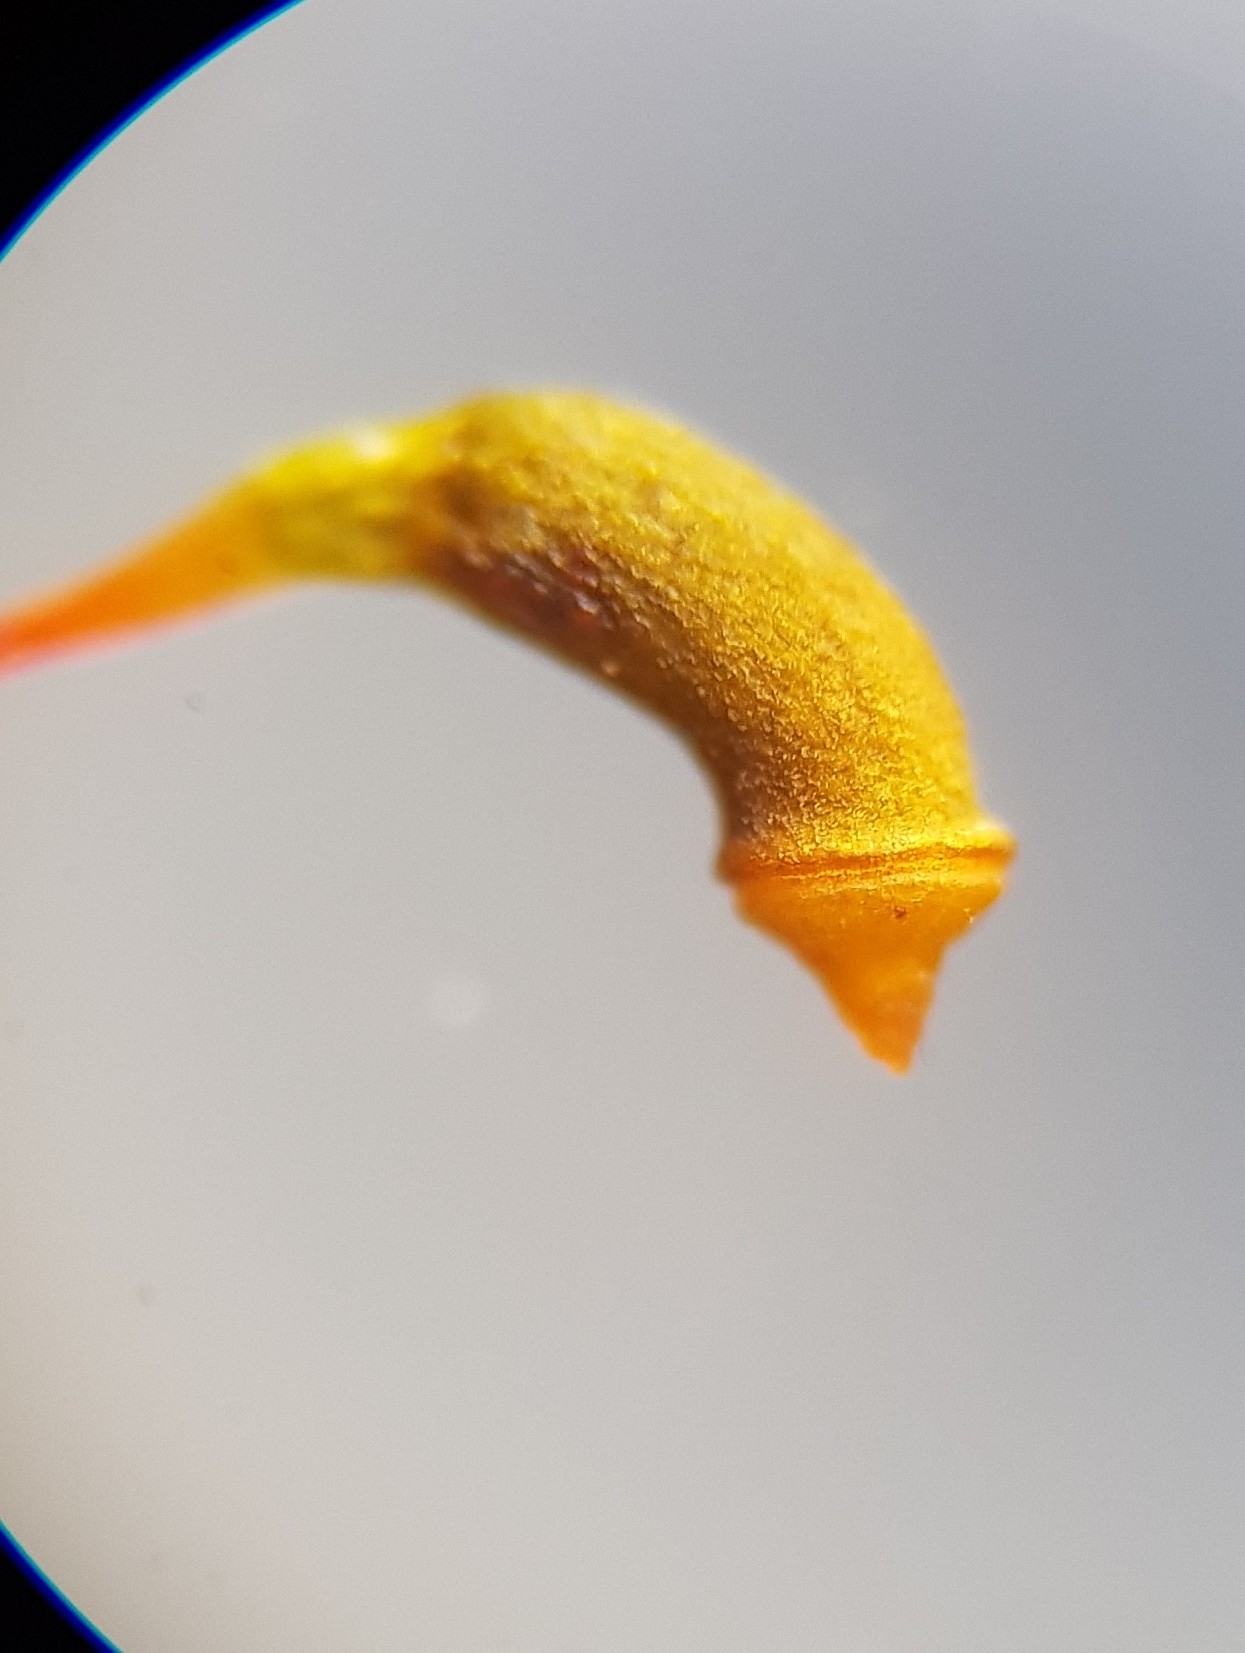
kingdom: Plantae
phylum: Bryophyta
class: Bryopsida
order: Hypnales
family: Amblystegiaceae
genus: Hygrohypnum
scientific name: Hygrohypnum luridum
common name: Drab brook moss
